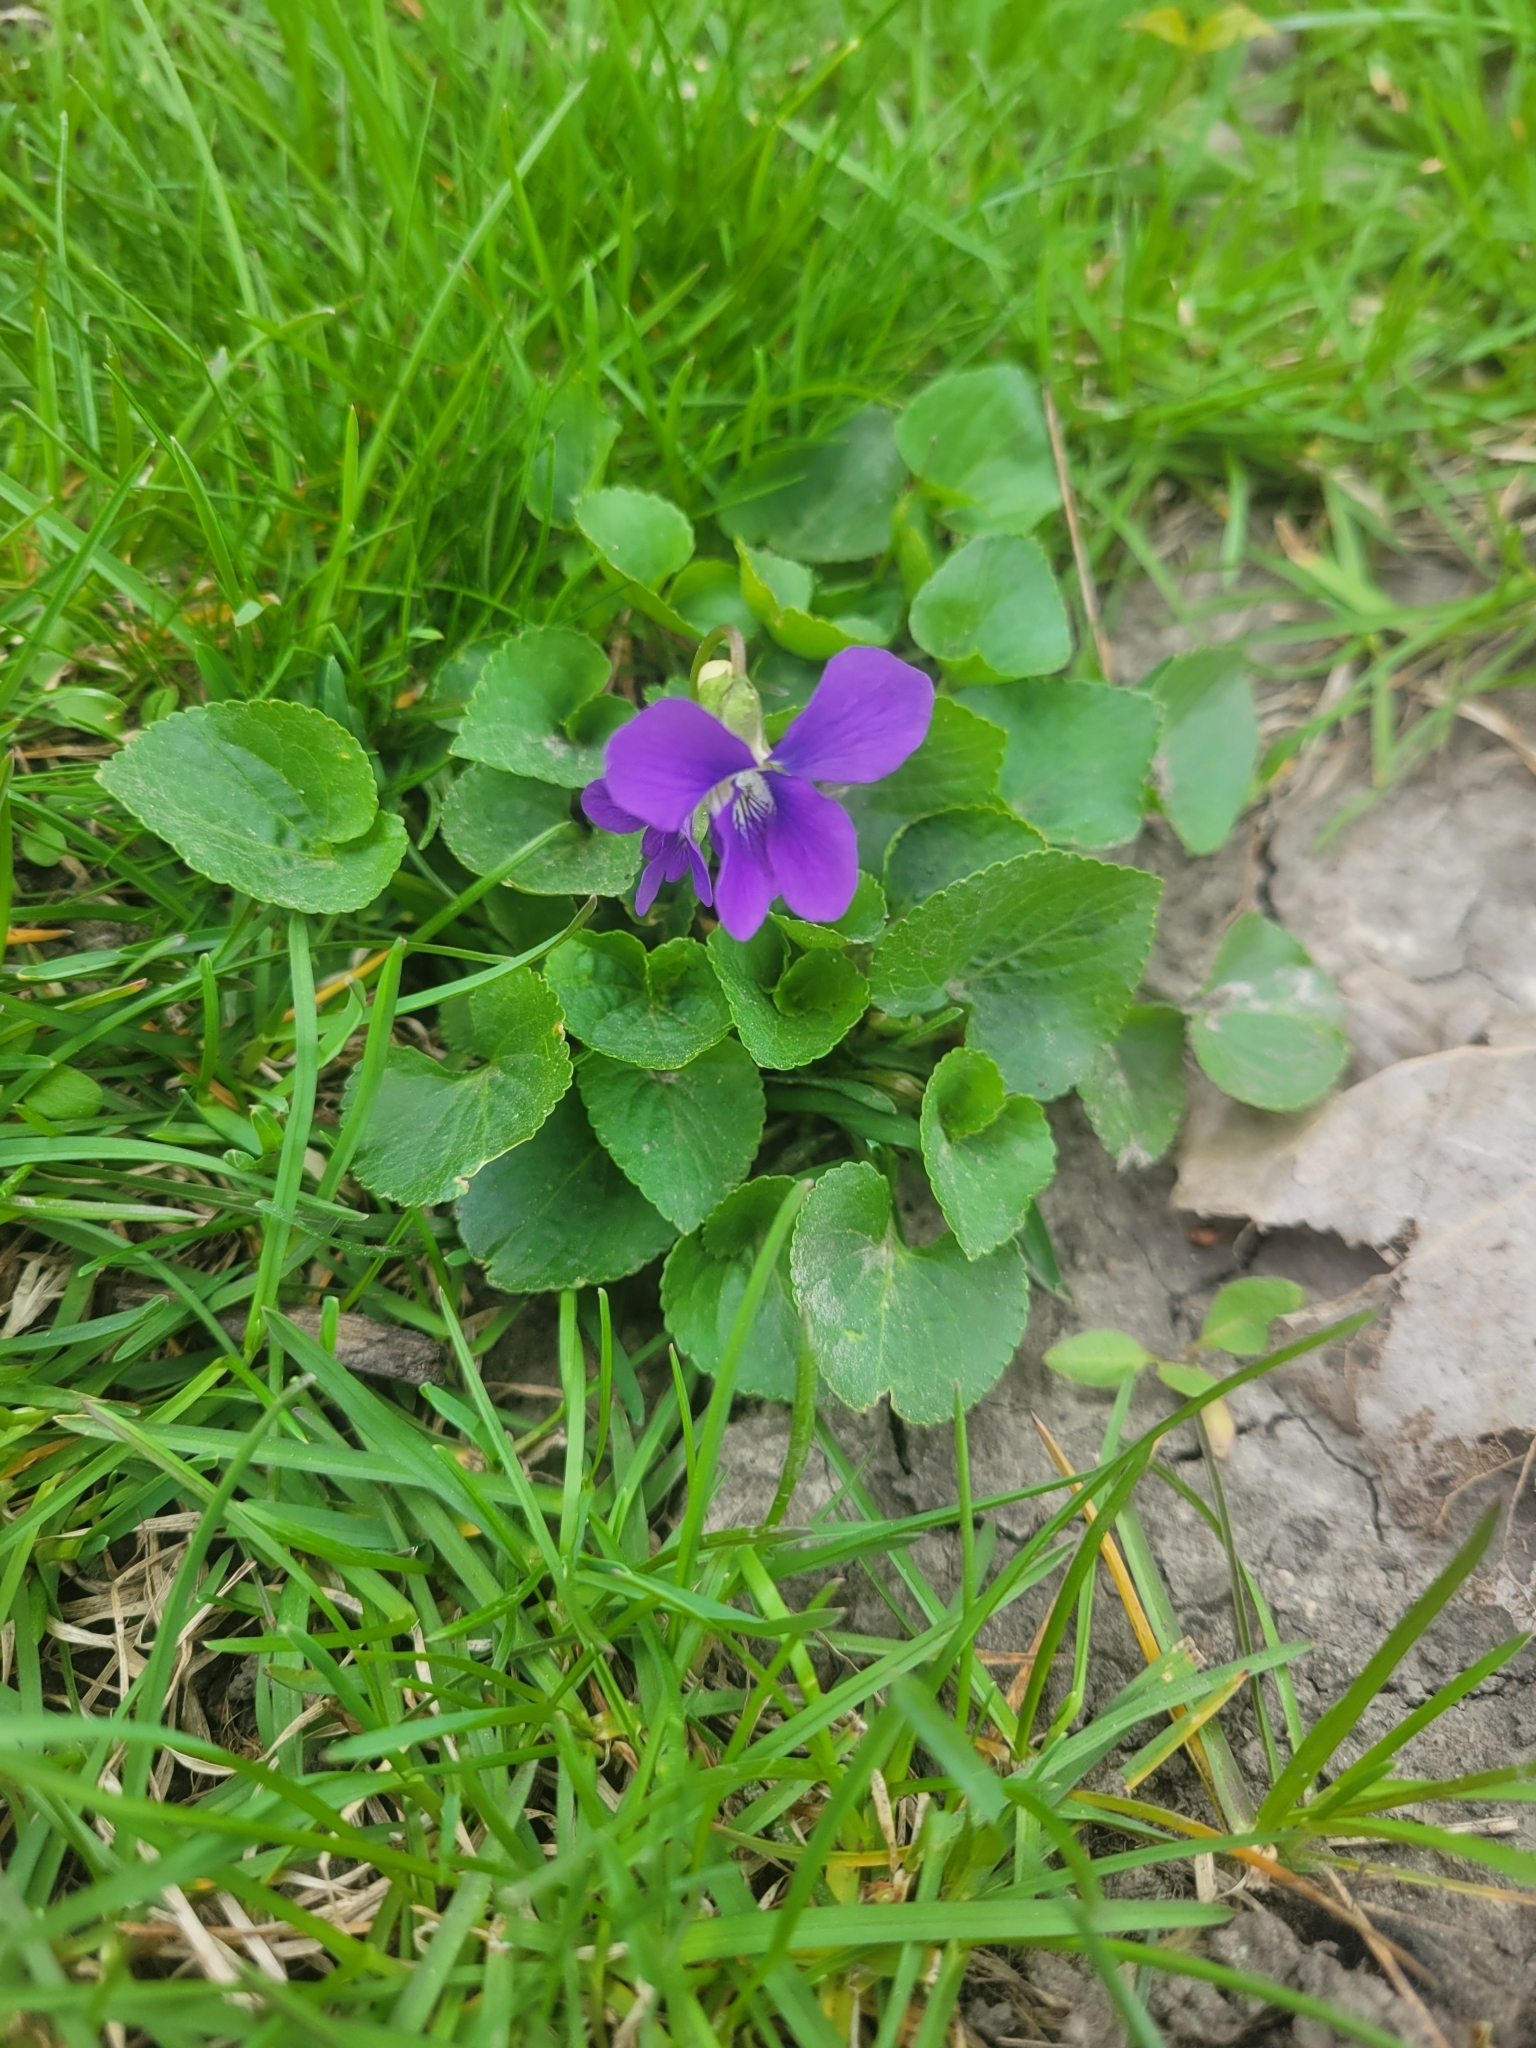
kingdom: Plantae
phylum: Tracheophyta
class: Magnoliopsida
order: Malpighiales
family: Violaceae
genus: Viola
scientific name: Viola sororia
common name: Dooryard violet
